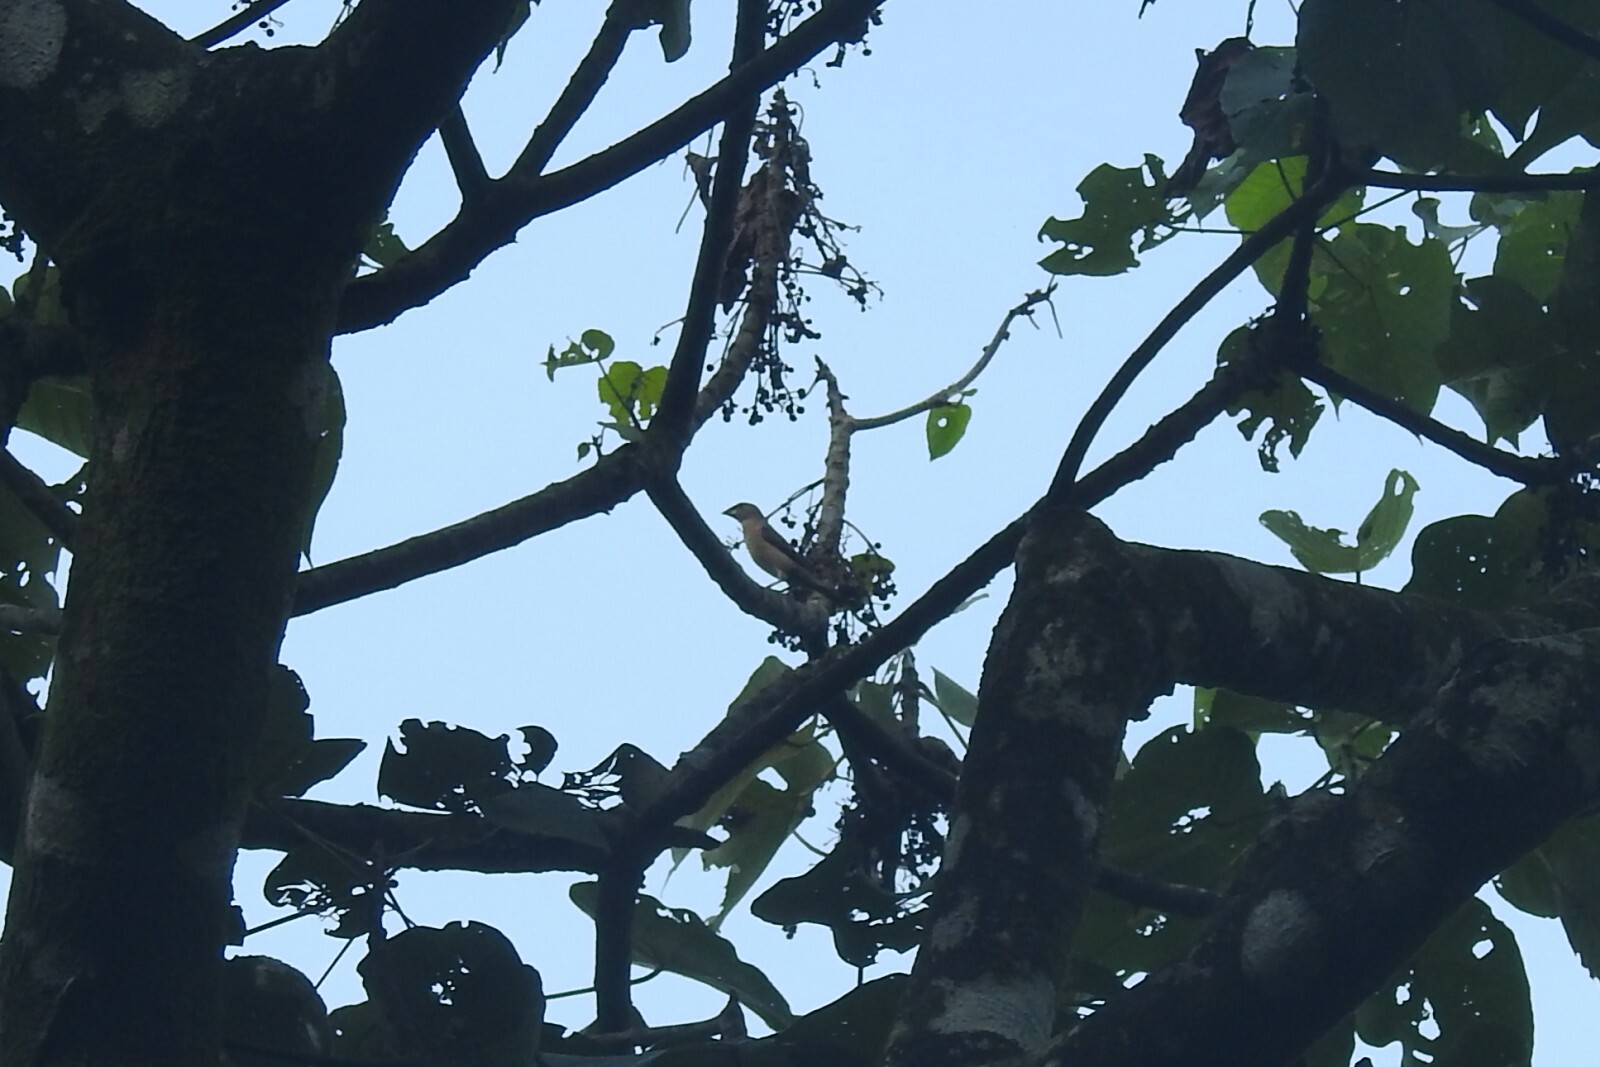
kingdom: Animalia
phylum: Chordata
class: Aves
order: Passeriformes
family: Passeridae
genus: Gymnoris
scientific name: Gymnoris xanthocollis
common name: Yellow-throated sparrow
